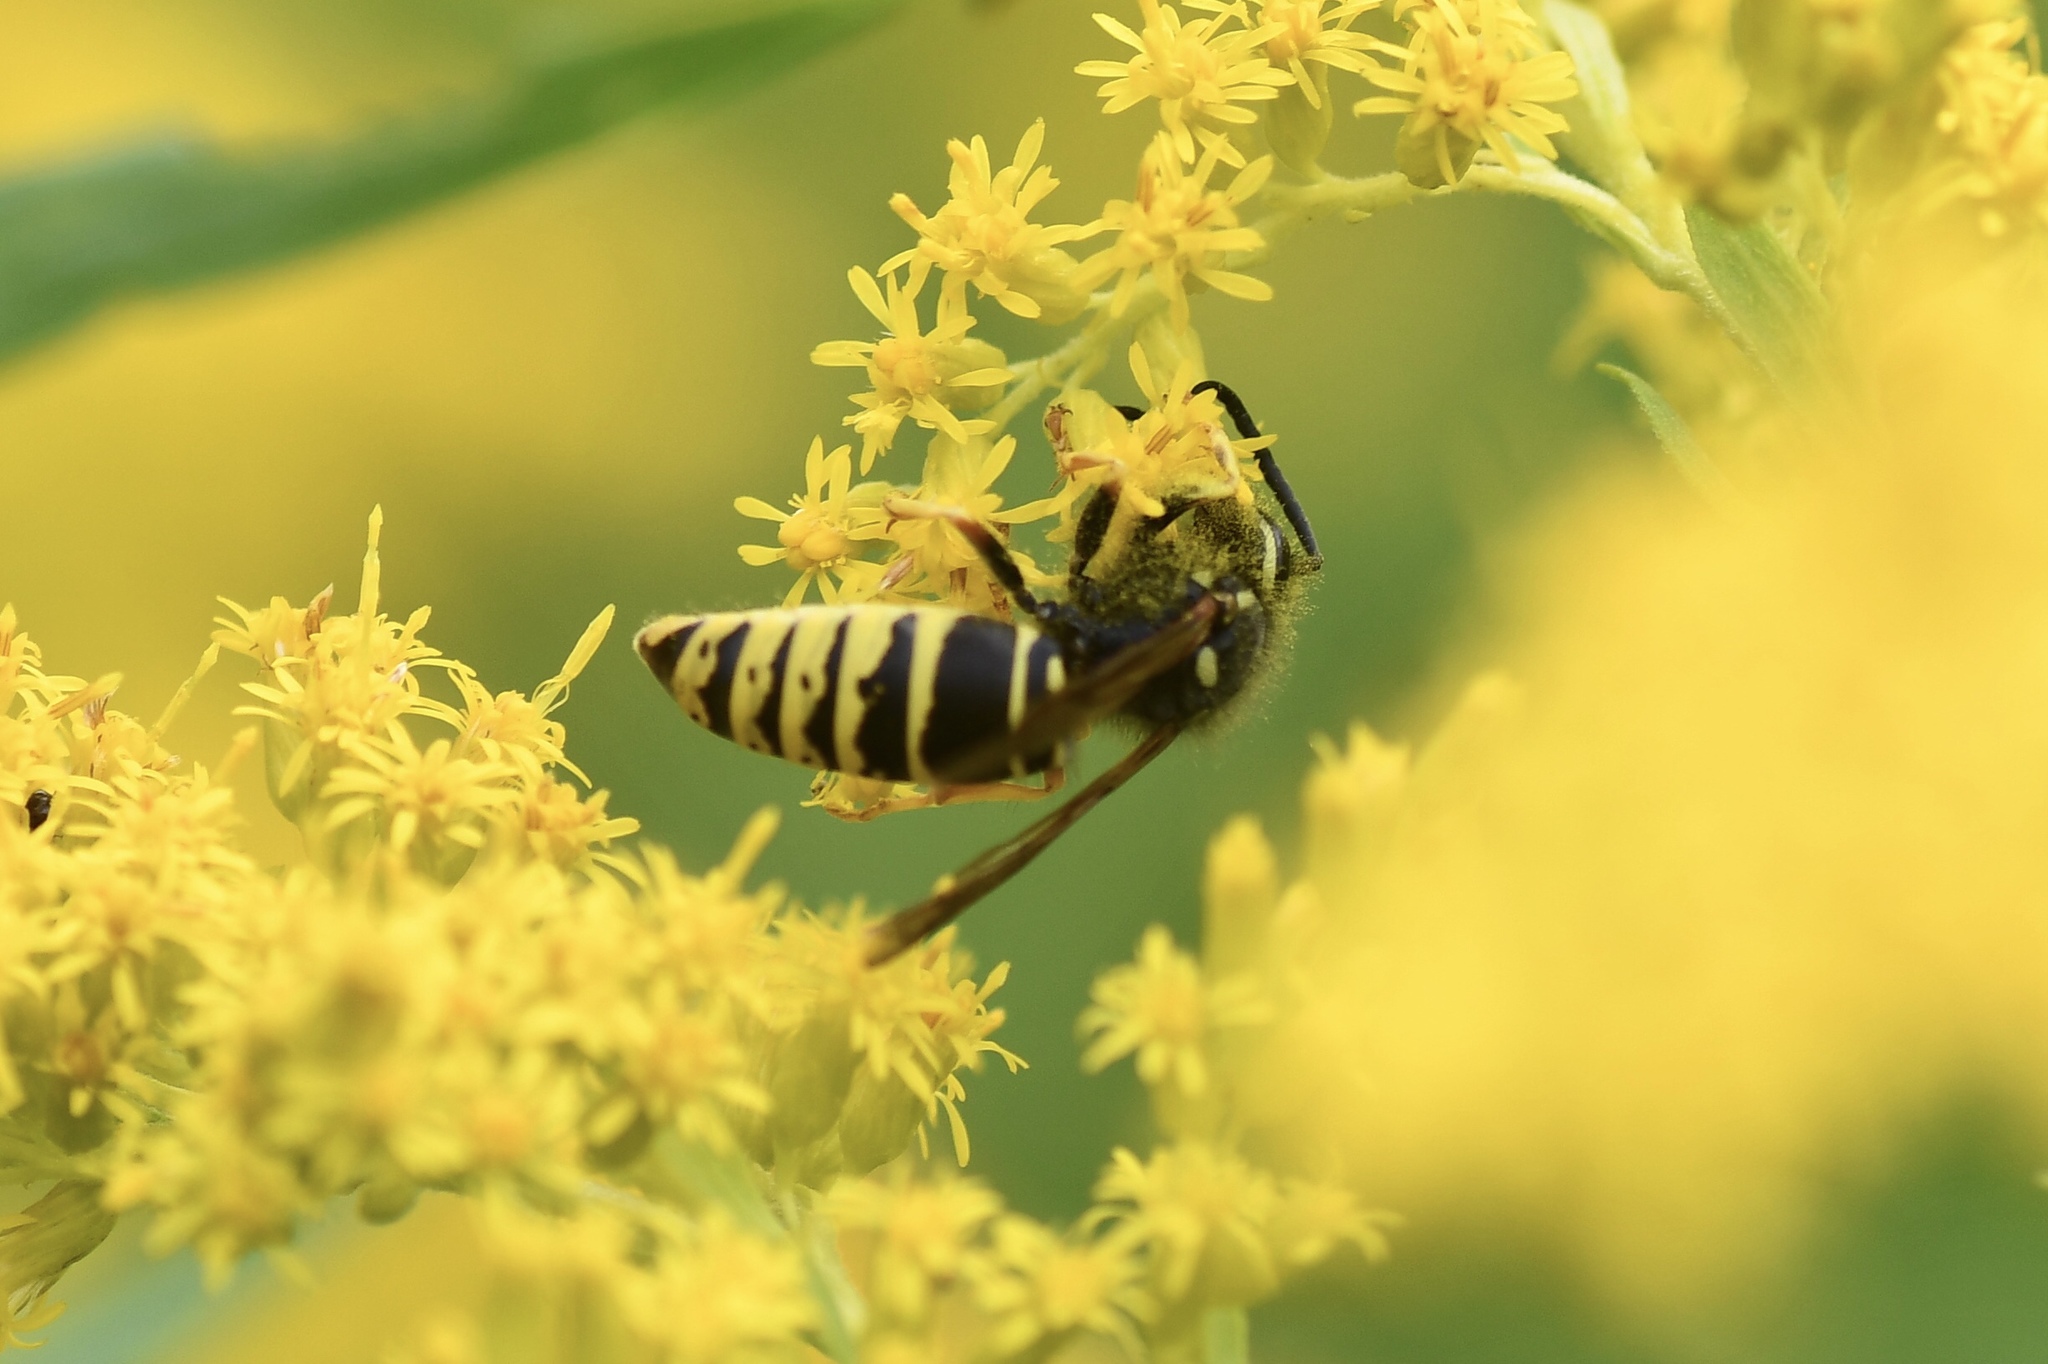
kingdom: Animalia
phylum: Arthropoda
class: Insecta
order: Hymenoptera
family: Vespidae
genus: Vespula
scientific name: Vespula vidua
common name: Widow yellowjacket
